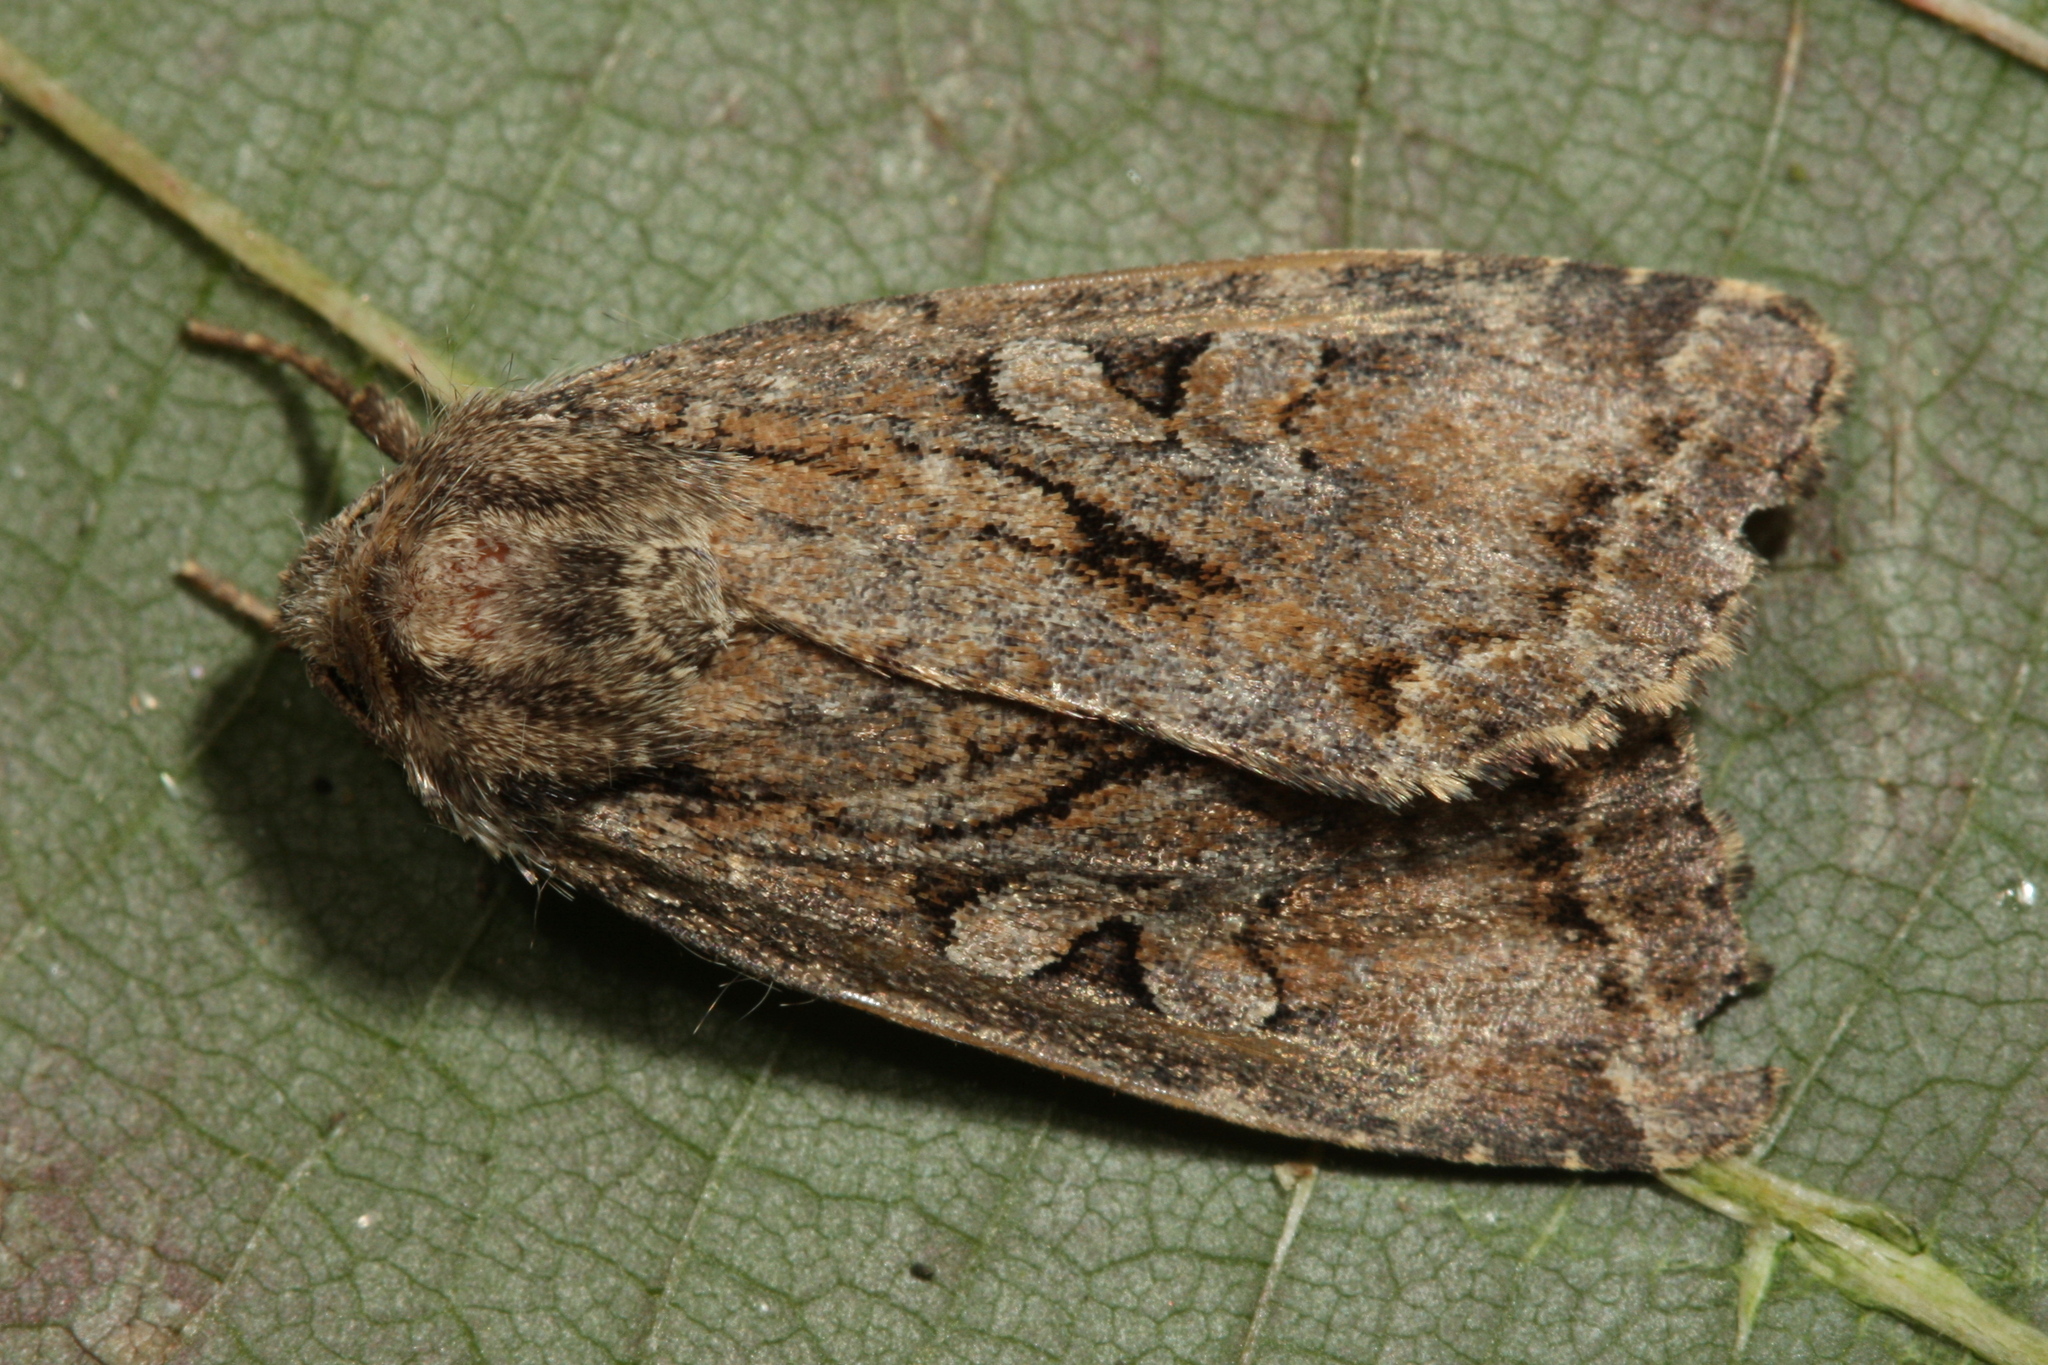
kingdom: Animalia
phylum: Arthropoda
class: Insecta
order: Lepidoptera
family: Noctuidae
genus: Apterogenum
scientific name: Apterogenum ypsillon
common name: Dingy shears
